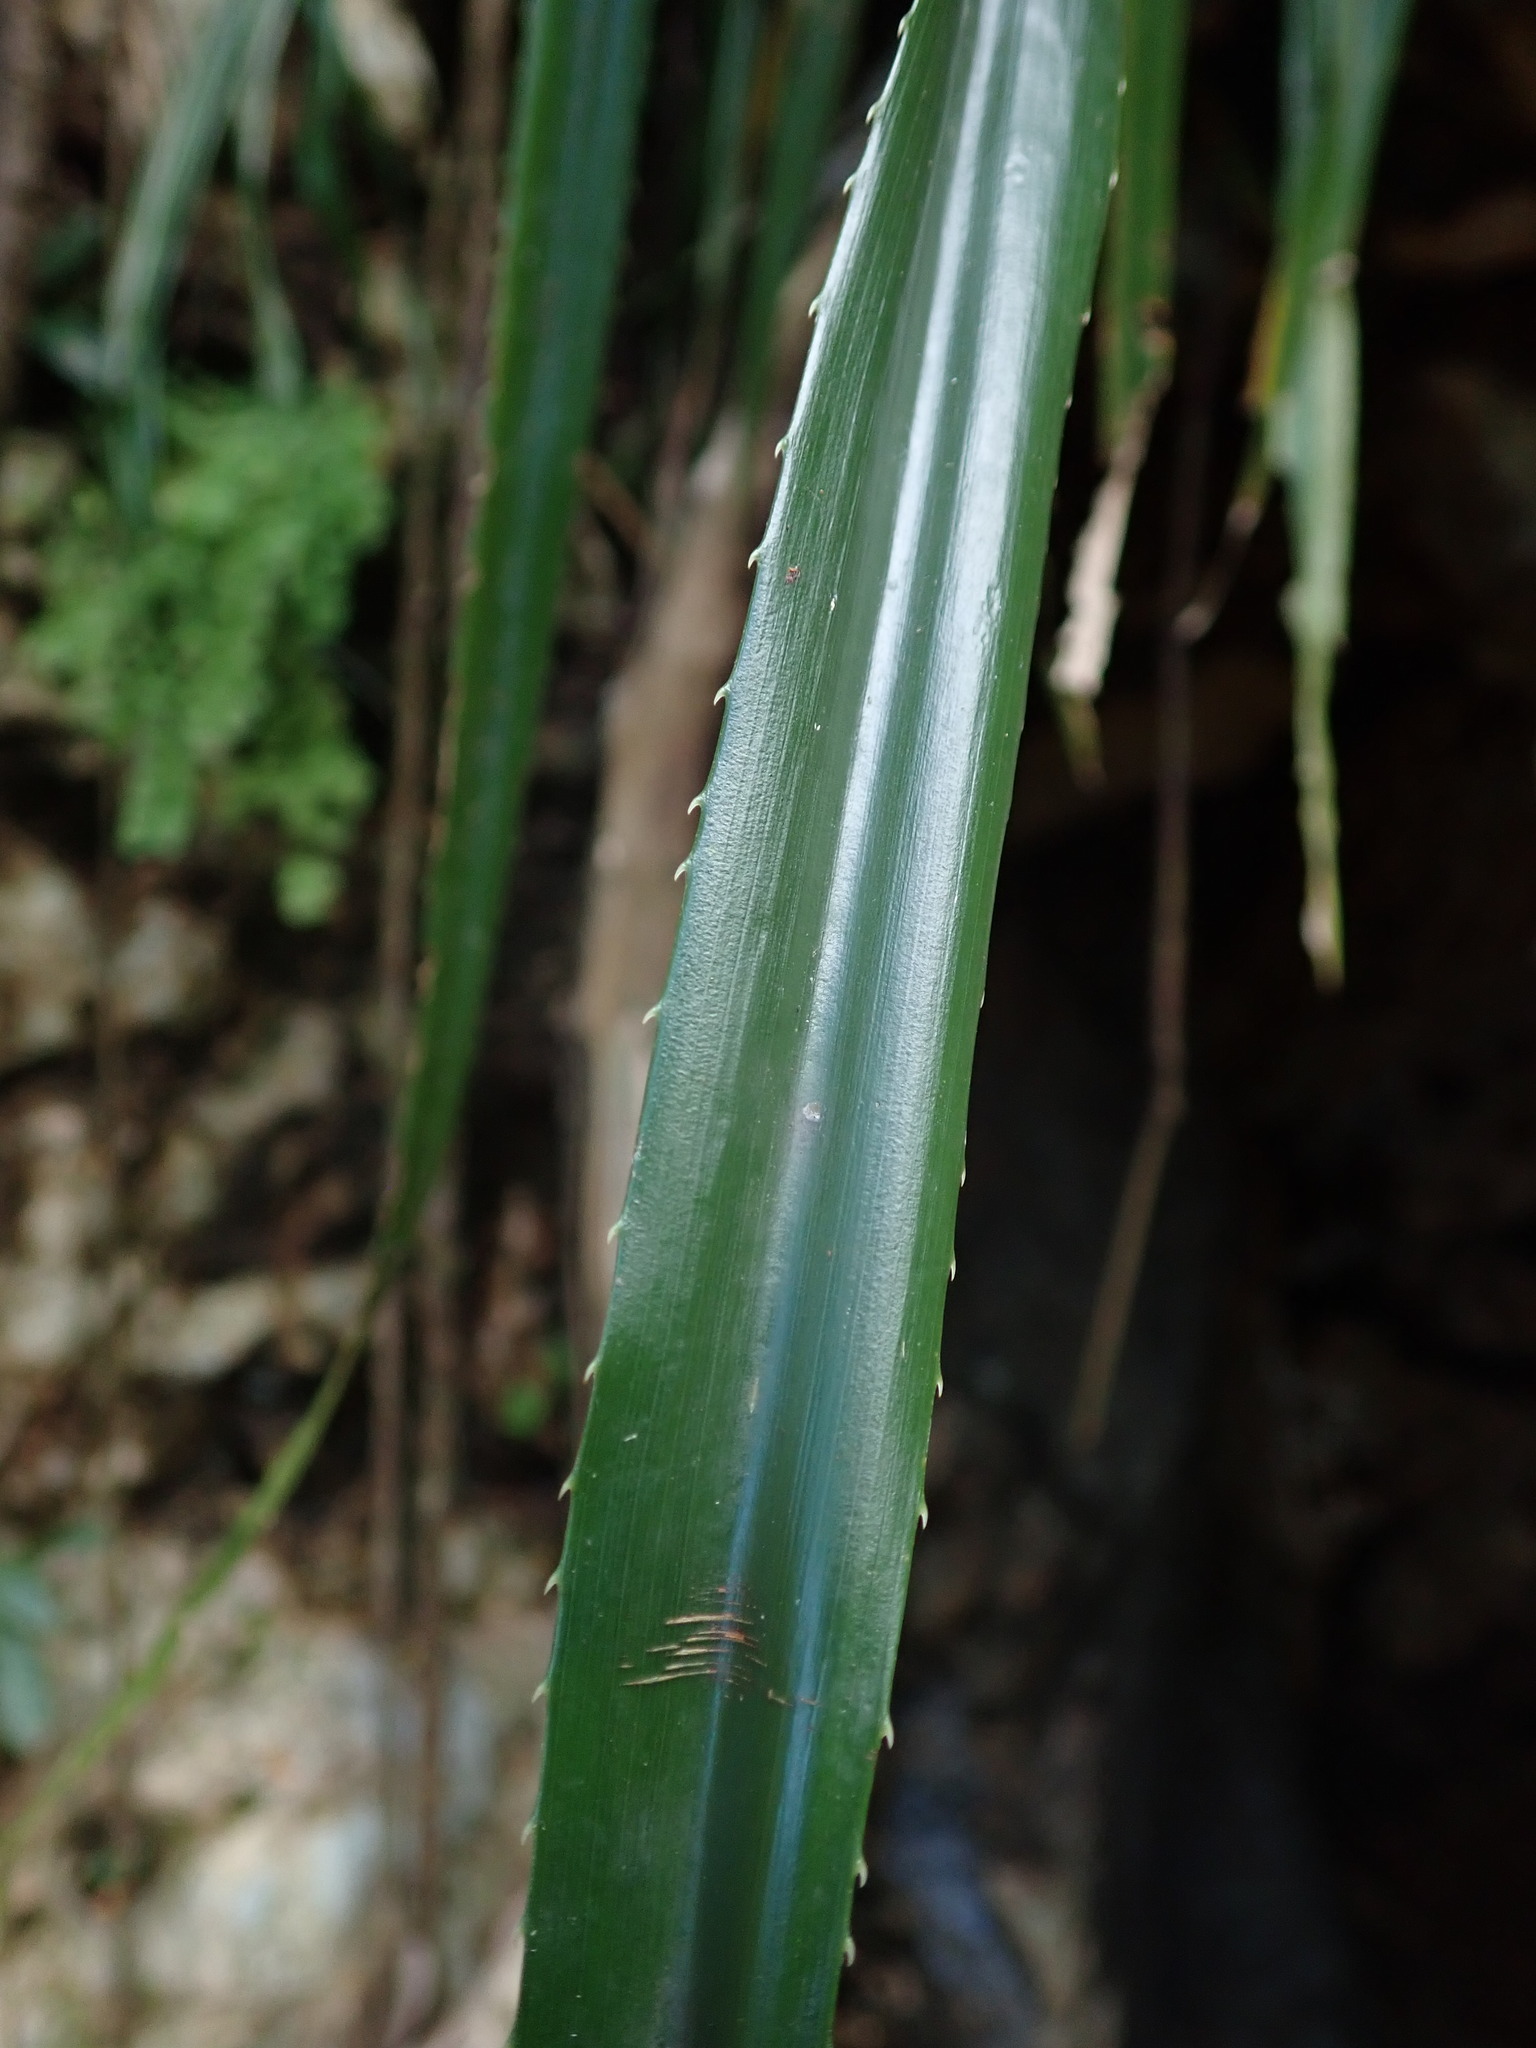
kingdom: Plantae
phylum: Tracheophyta
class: Liliopsida
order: Poales
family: Bromeliaceae
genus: Pitcairnia
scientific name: Pitcairnia angustifolia
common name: Clapper
